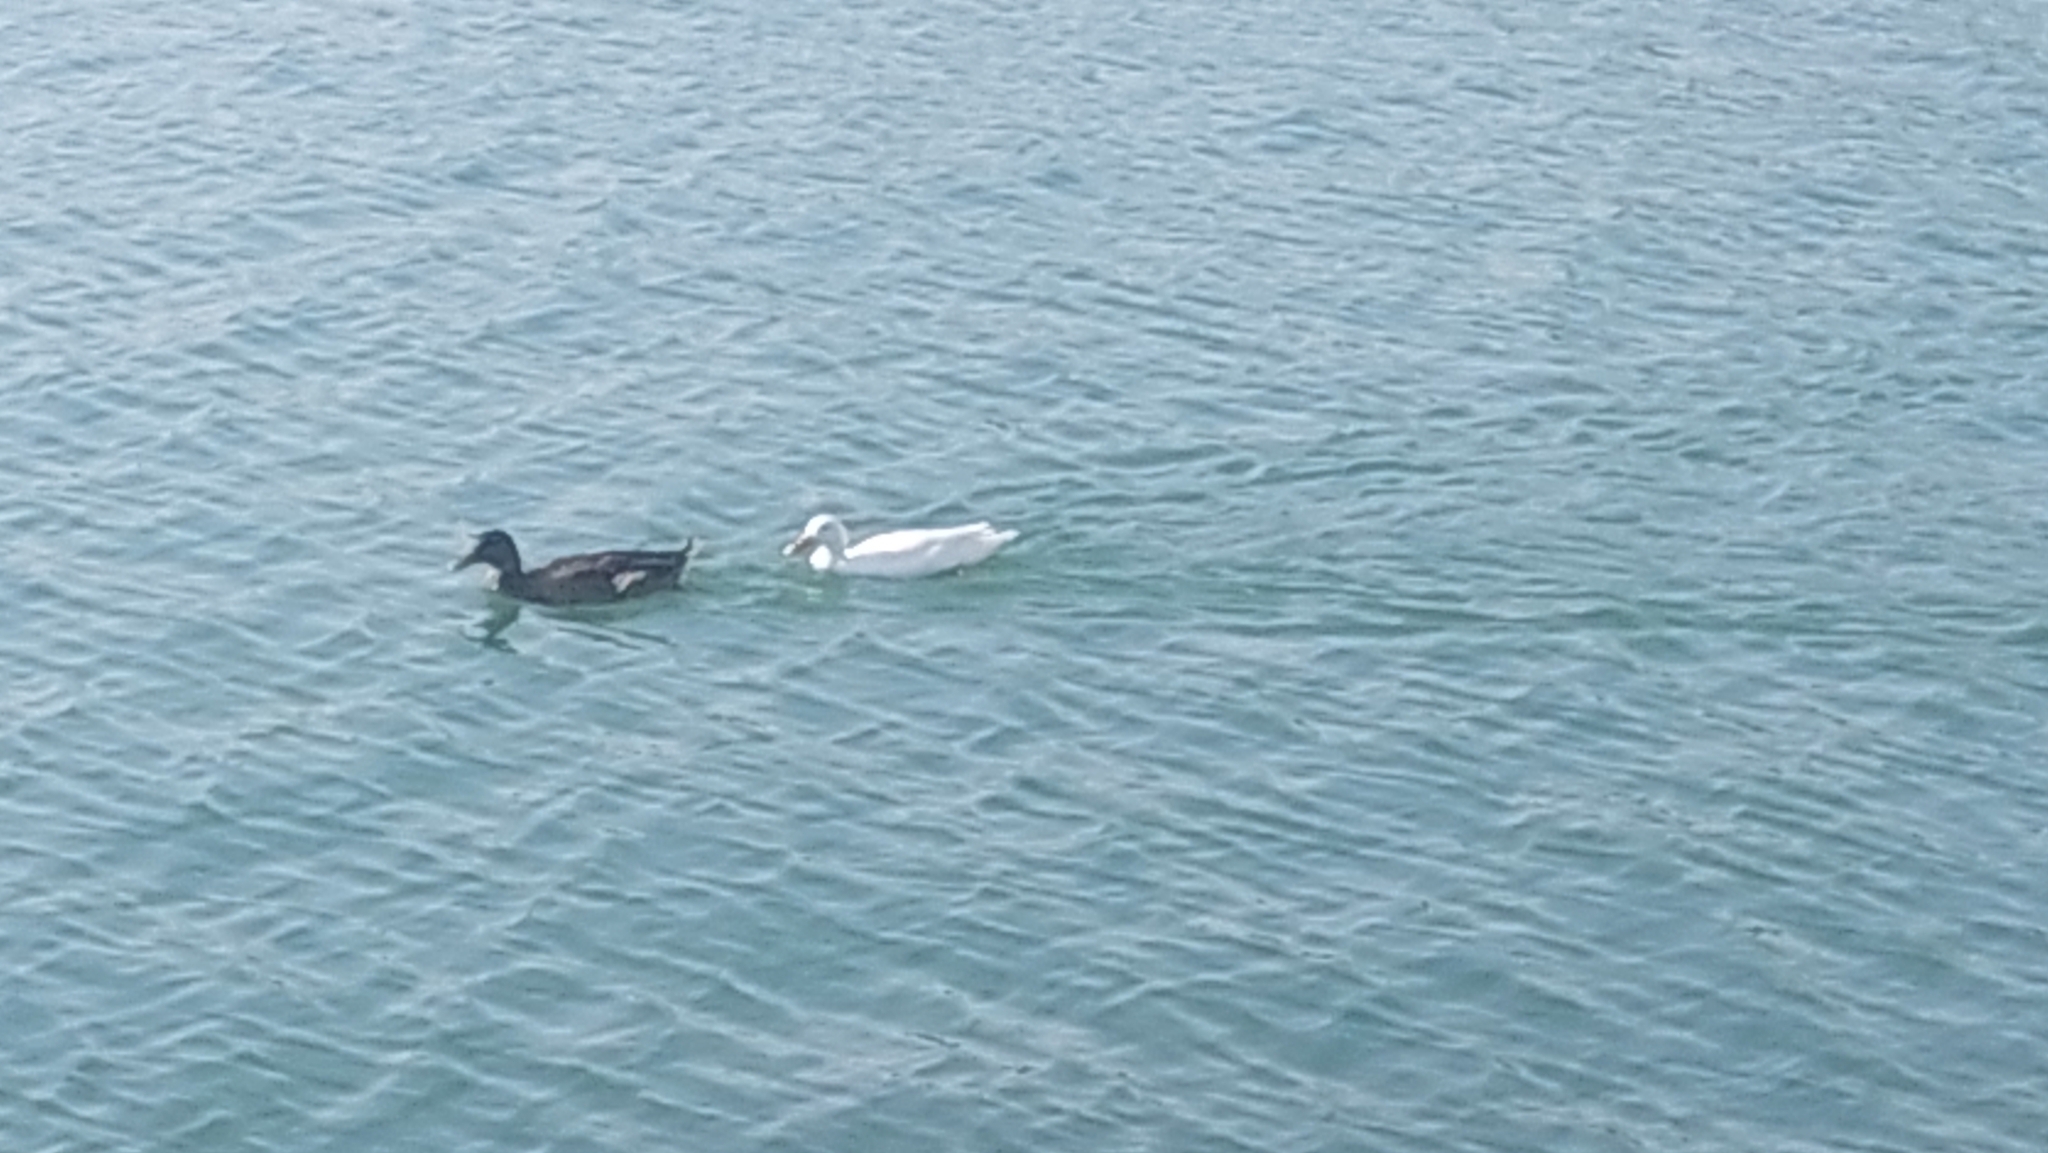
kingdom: Animalia
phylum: Chordata
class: Aves
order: Anseriformes
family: Anatidae
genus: Anas
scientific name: Anas platyrhynchos
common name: Mallard
